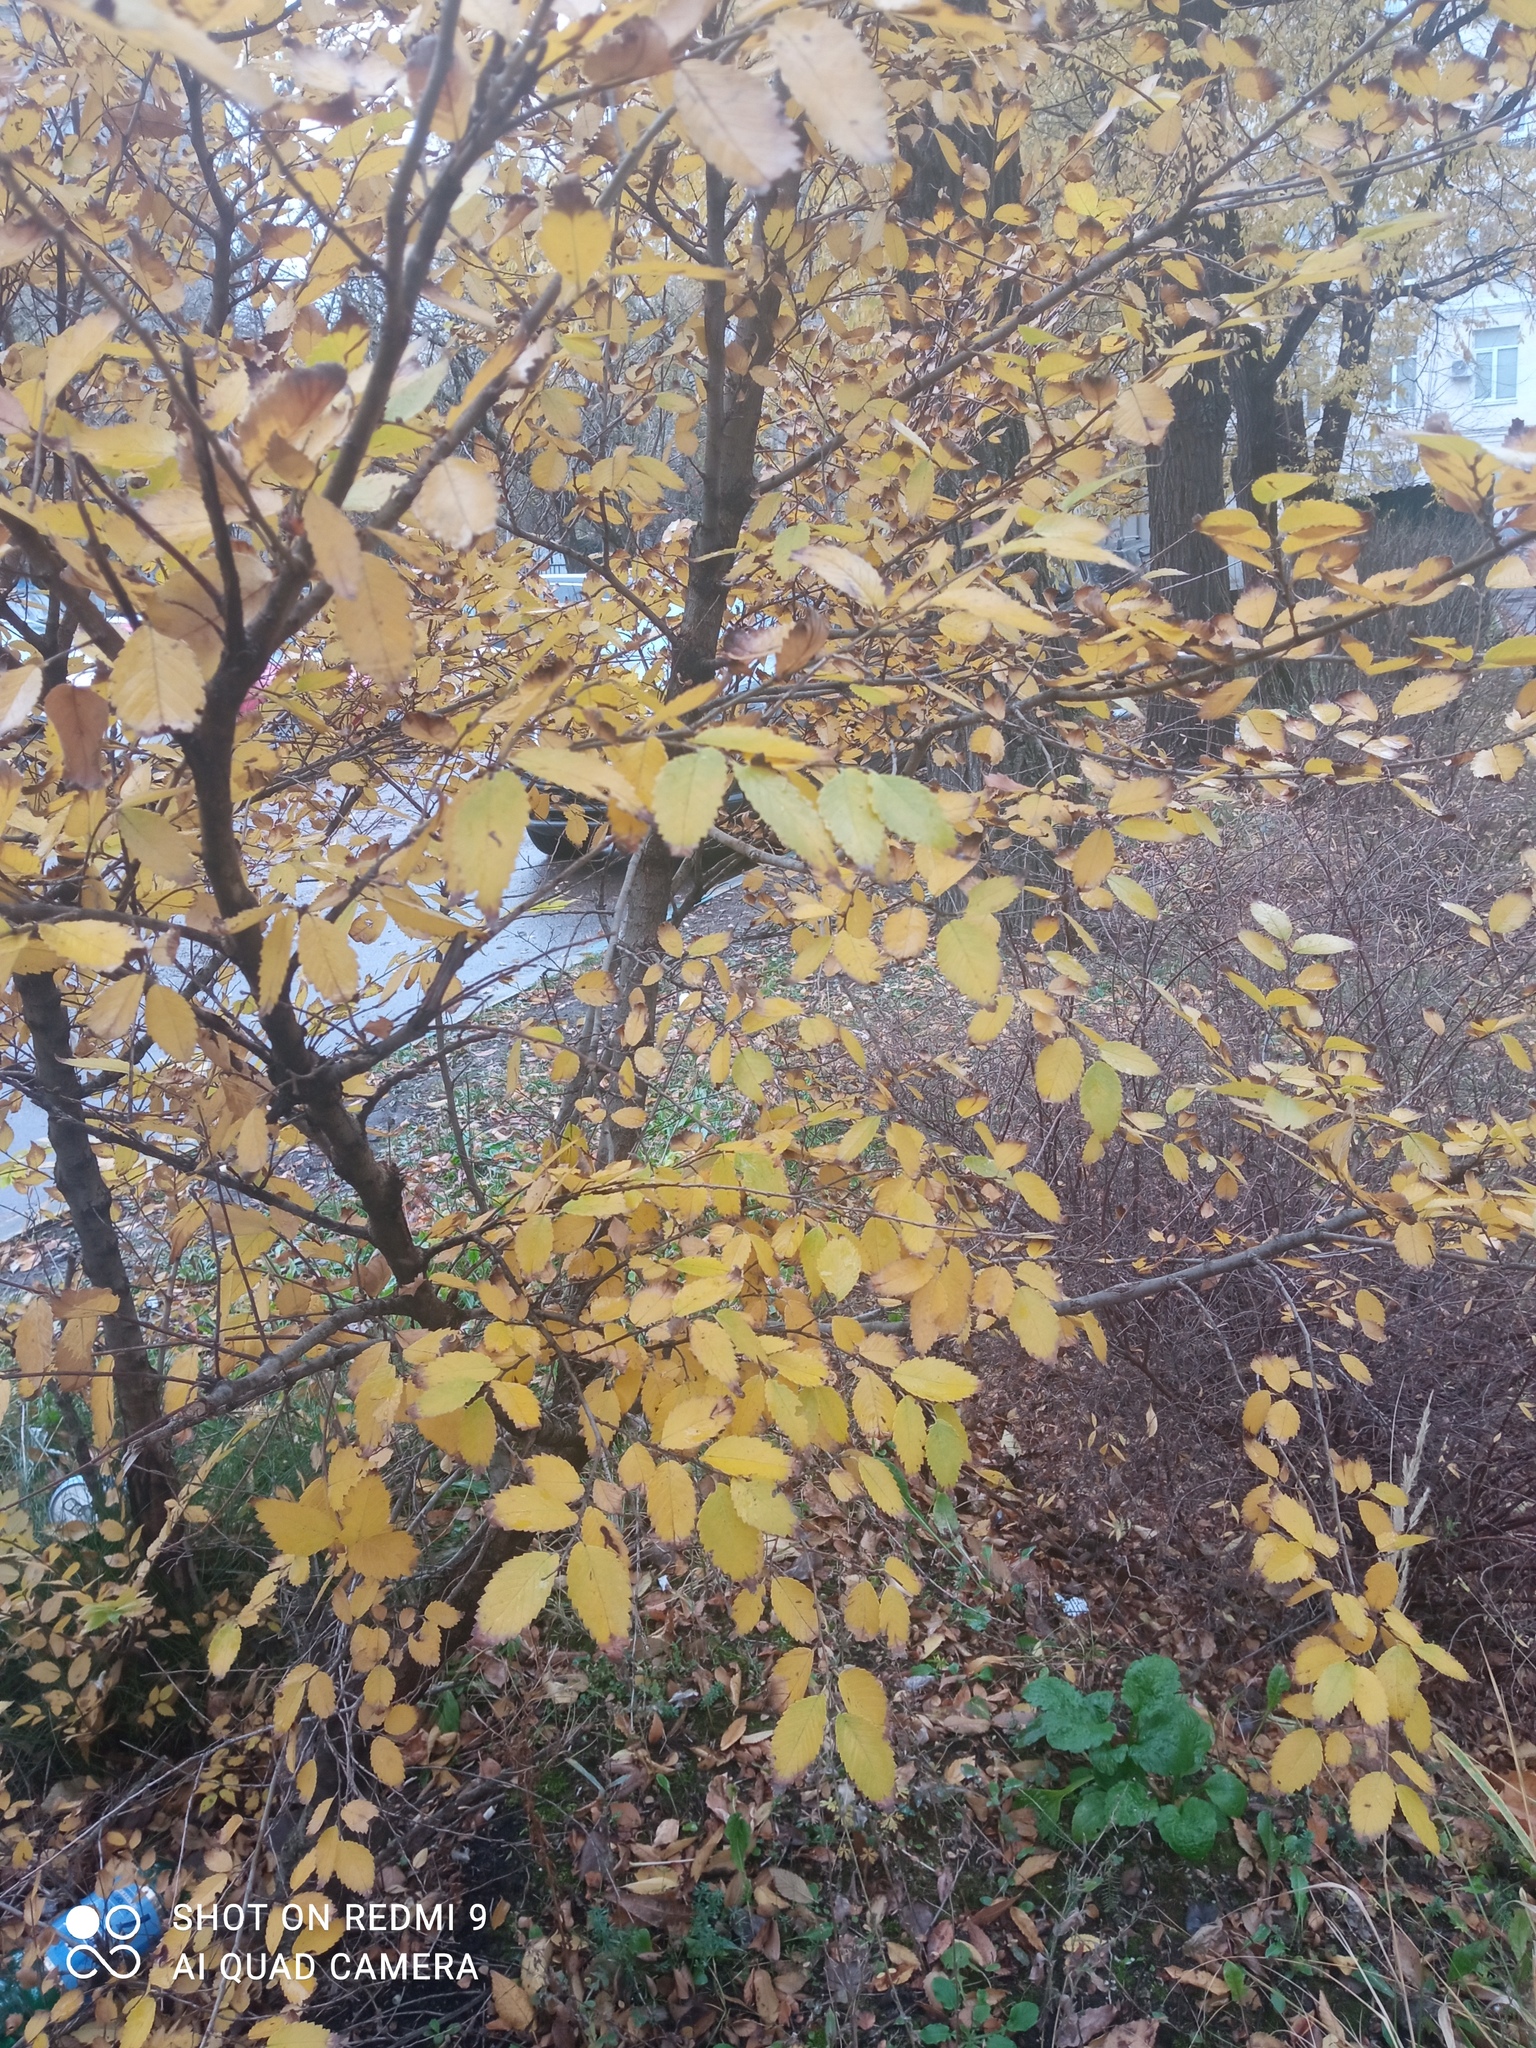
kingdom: Plantae
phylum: Tracheophyta
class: Magnoliopsida
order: Rosales
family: Ulmaceae
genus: Ulmus
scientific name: Ulmus pumila
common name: Siberian elm
